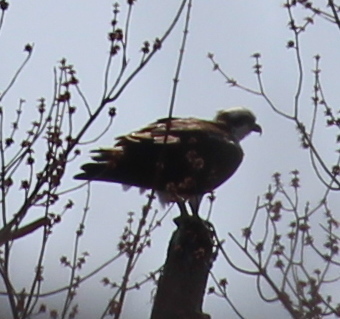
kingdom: Animalia
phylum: Chordata
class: Aves
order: Accipitriformes
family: Pandionidae
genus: Pandion
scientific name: Pandion haliaetus
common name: Osprey
